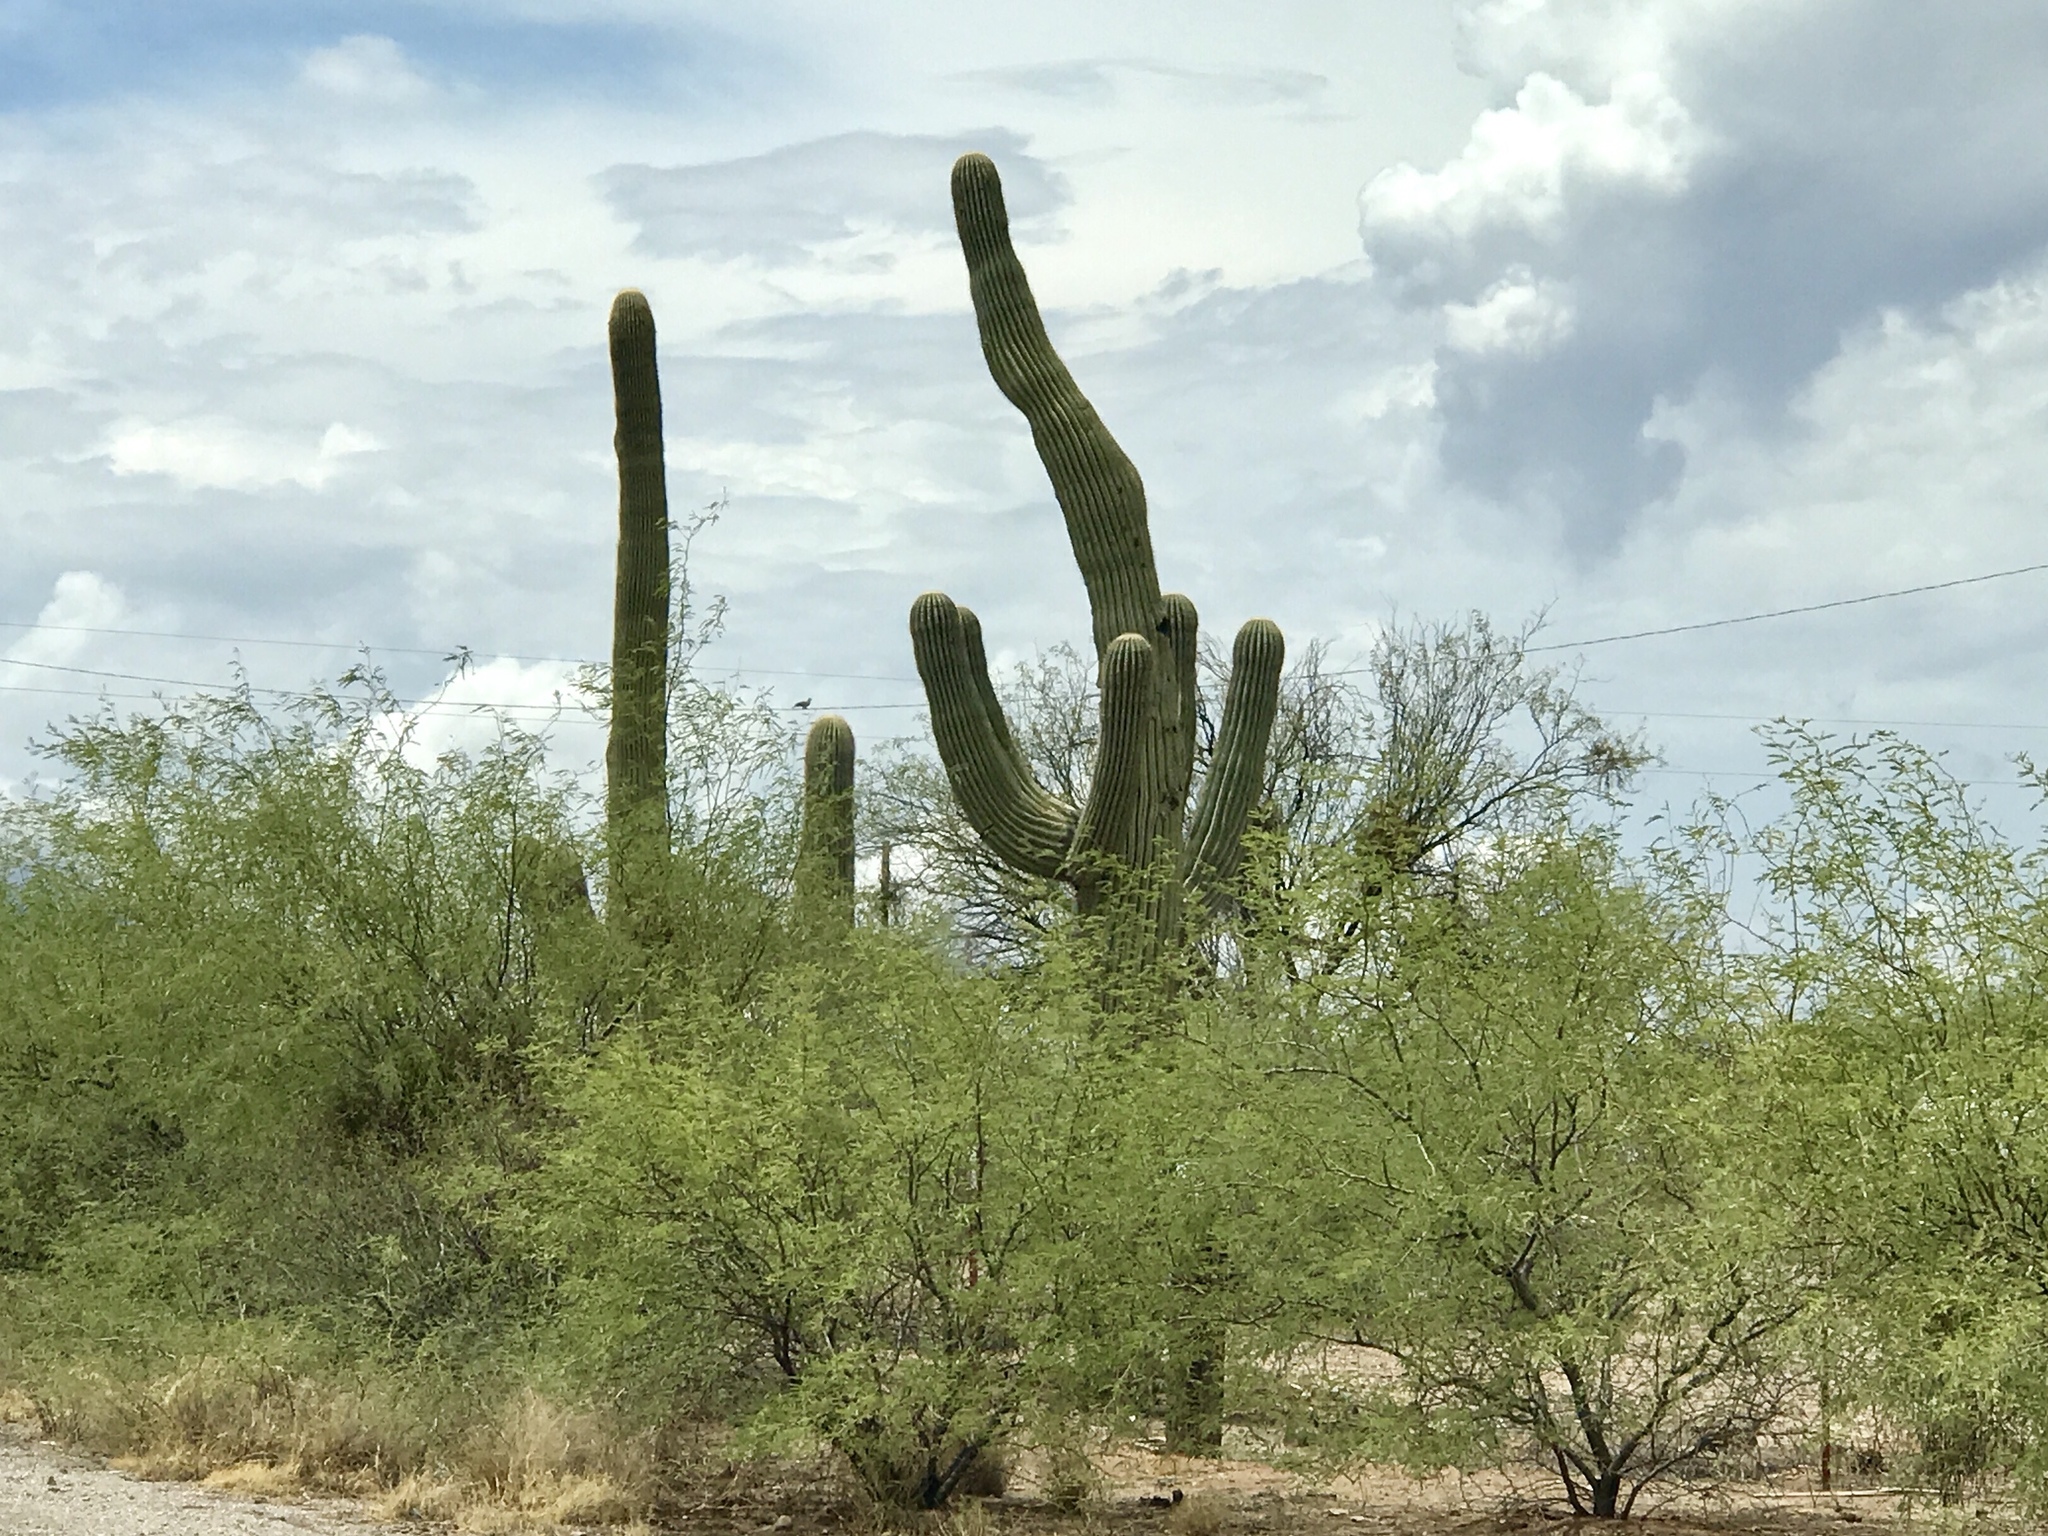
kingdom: Plantae
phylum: Tracheophyta
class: Magnoliopsida
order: Caryophyllales
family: Cactaceae
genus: Carnegiea
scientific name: Carnegiea gigantea
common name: Saguaro
